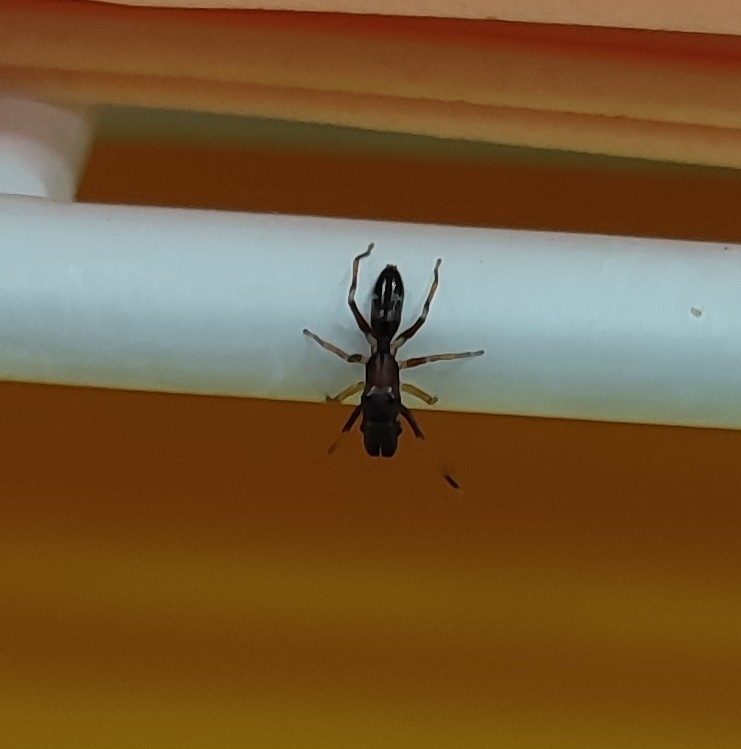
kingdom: Animalia
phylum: Arthropoda
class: Arachnida
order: Araneae
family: Salticidae
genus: Myrmarachne
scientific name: Myrmarachne formicaria
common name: Ant mimic jumping spider
